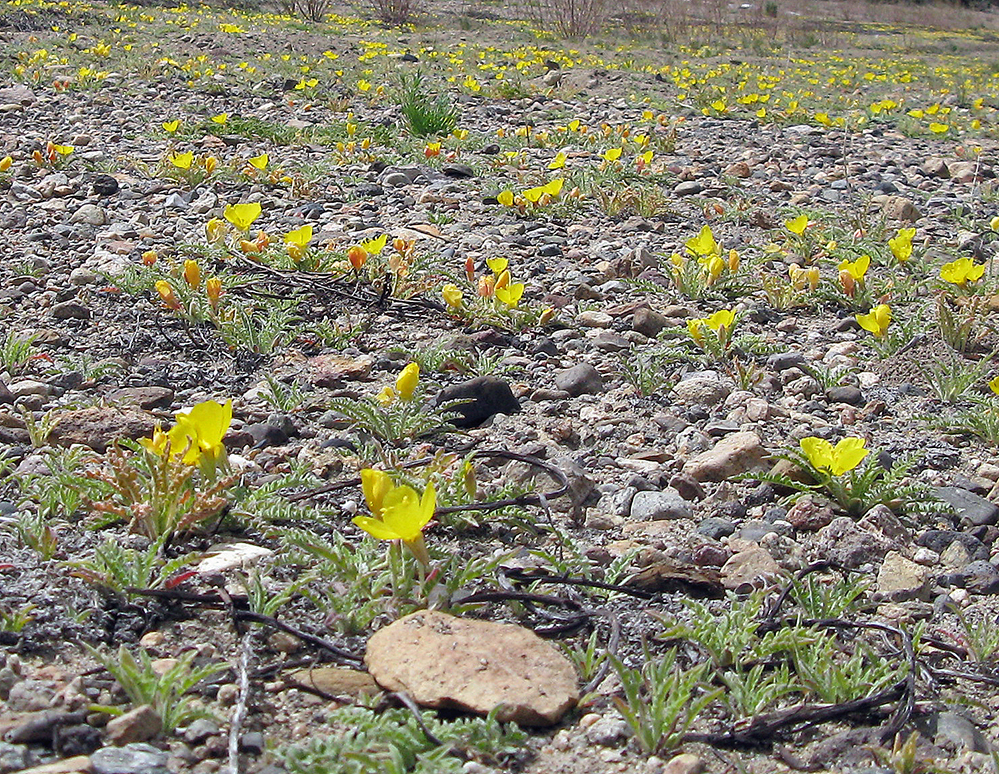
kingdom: Plantae
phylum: Tracheophyta
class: Magnoliopsida
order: Myrtales
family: Onagraceae
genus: Taraxia
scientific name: Taraxia tanacetifolia
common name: Tansyleaf evening primrose
